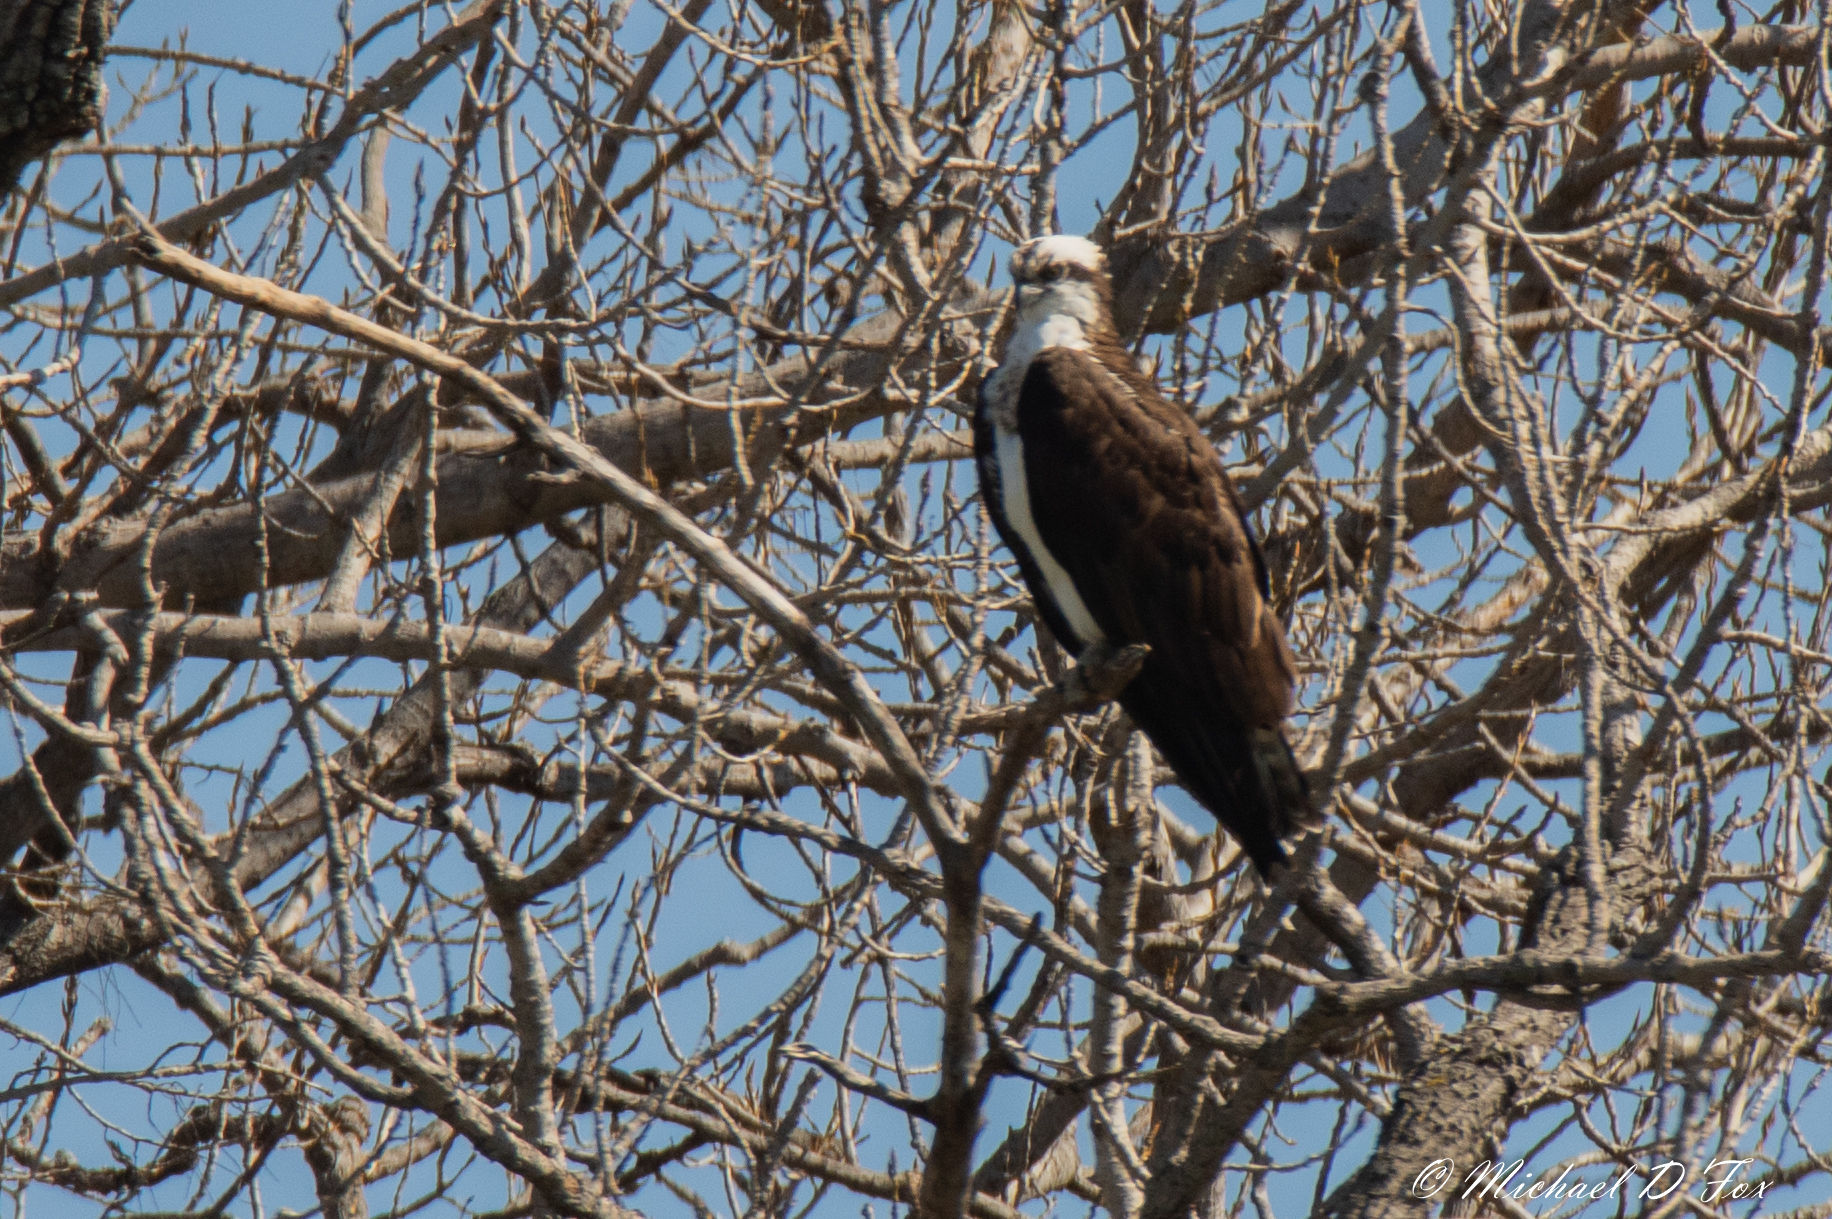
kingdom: Animalia
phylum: Chordata
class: Aves
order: Accipitriformes
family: Pandionidae
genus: Pandion
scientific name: Pandion haliaetus
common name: Osprey
